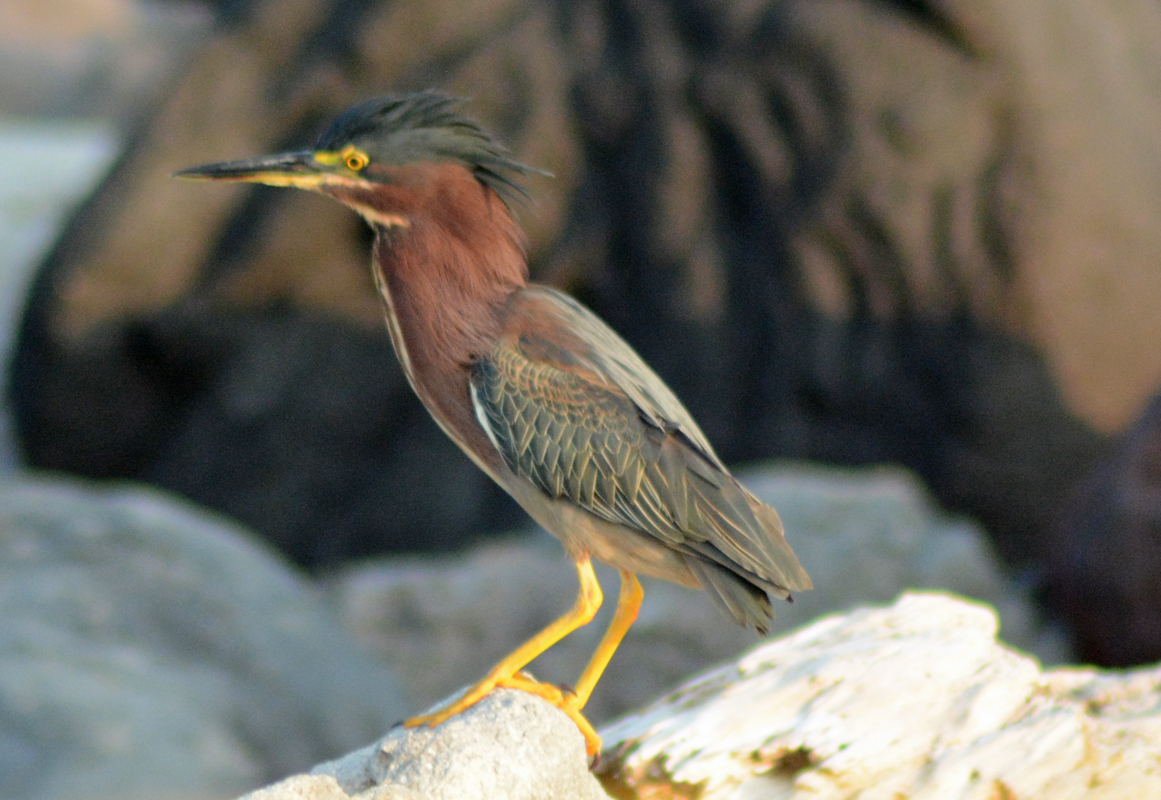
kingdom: Animalia
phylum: Chordata
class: Aves
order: Pelecaniformes
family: Ardeidae
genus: Butorides
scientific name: Butorides virescens
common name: Green heron
